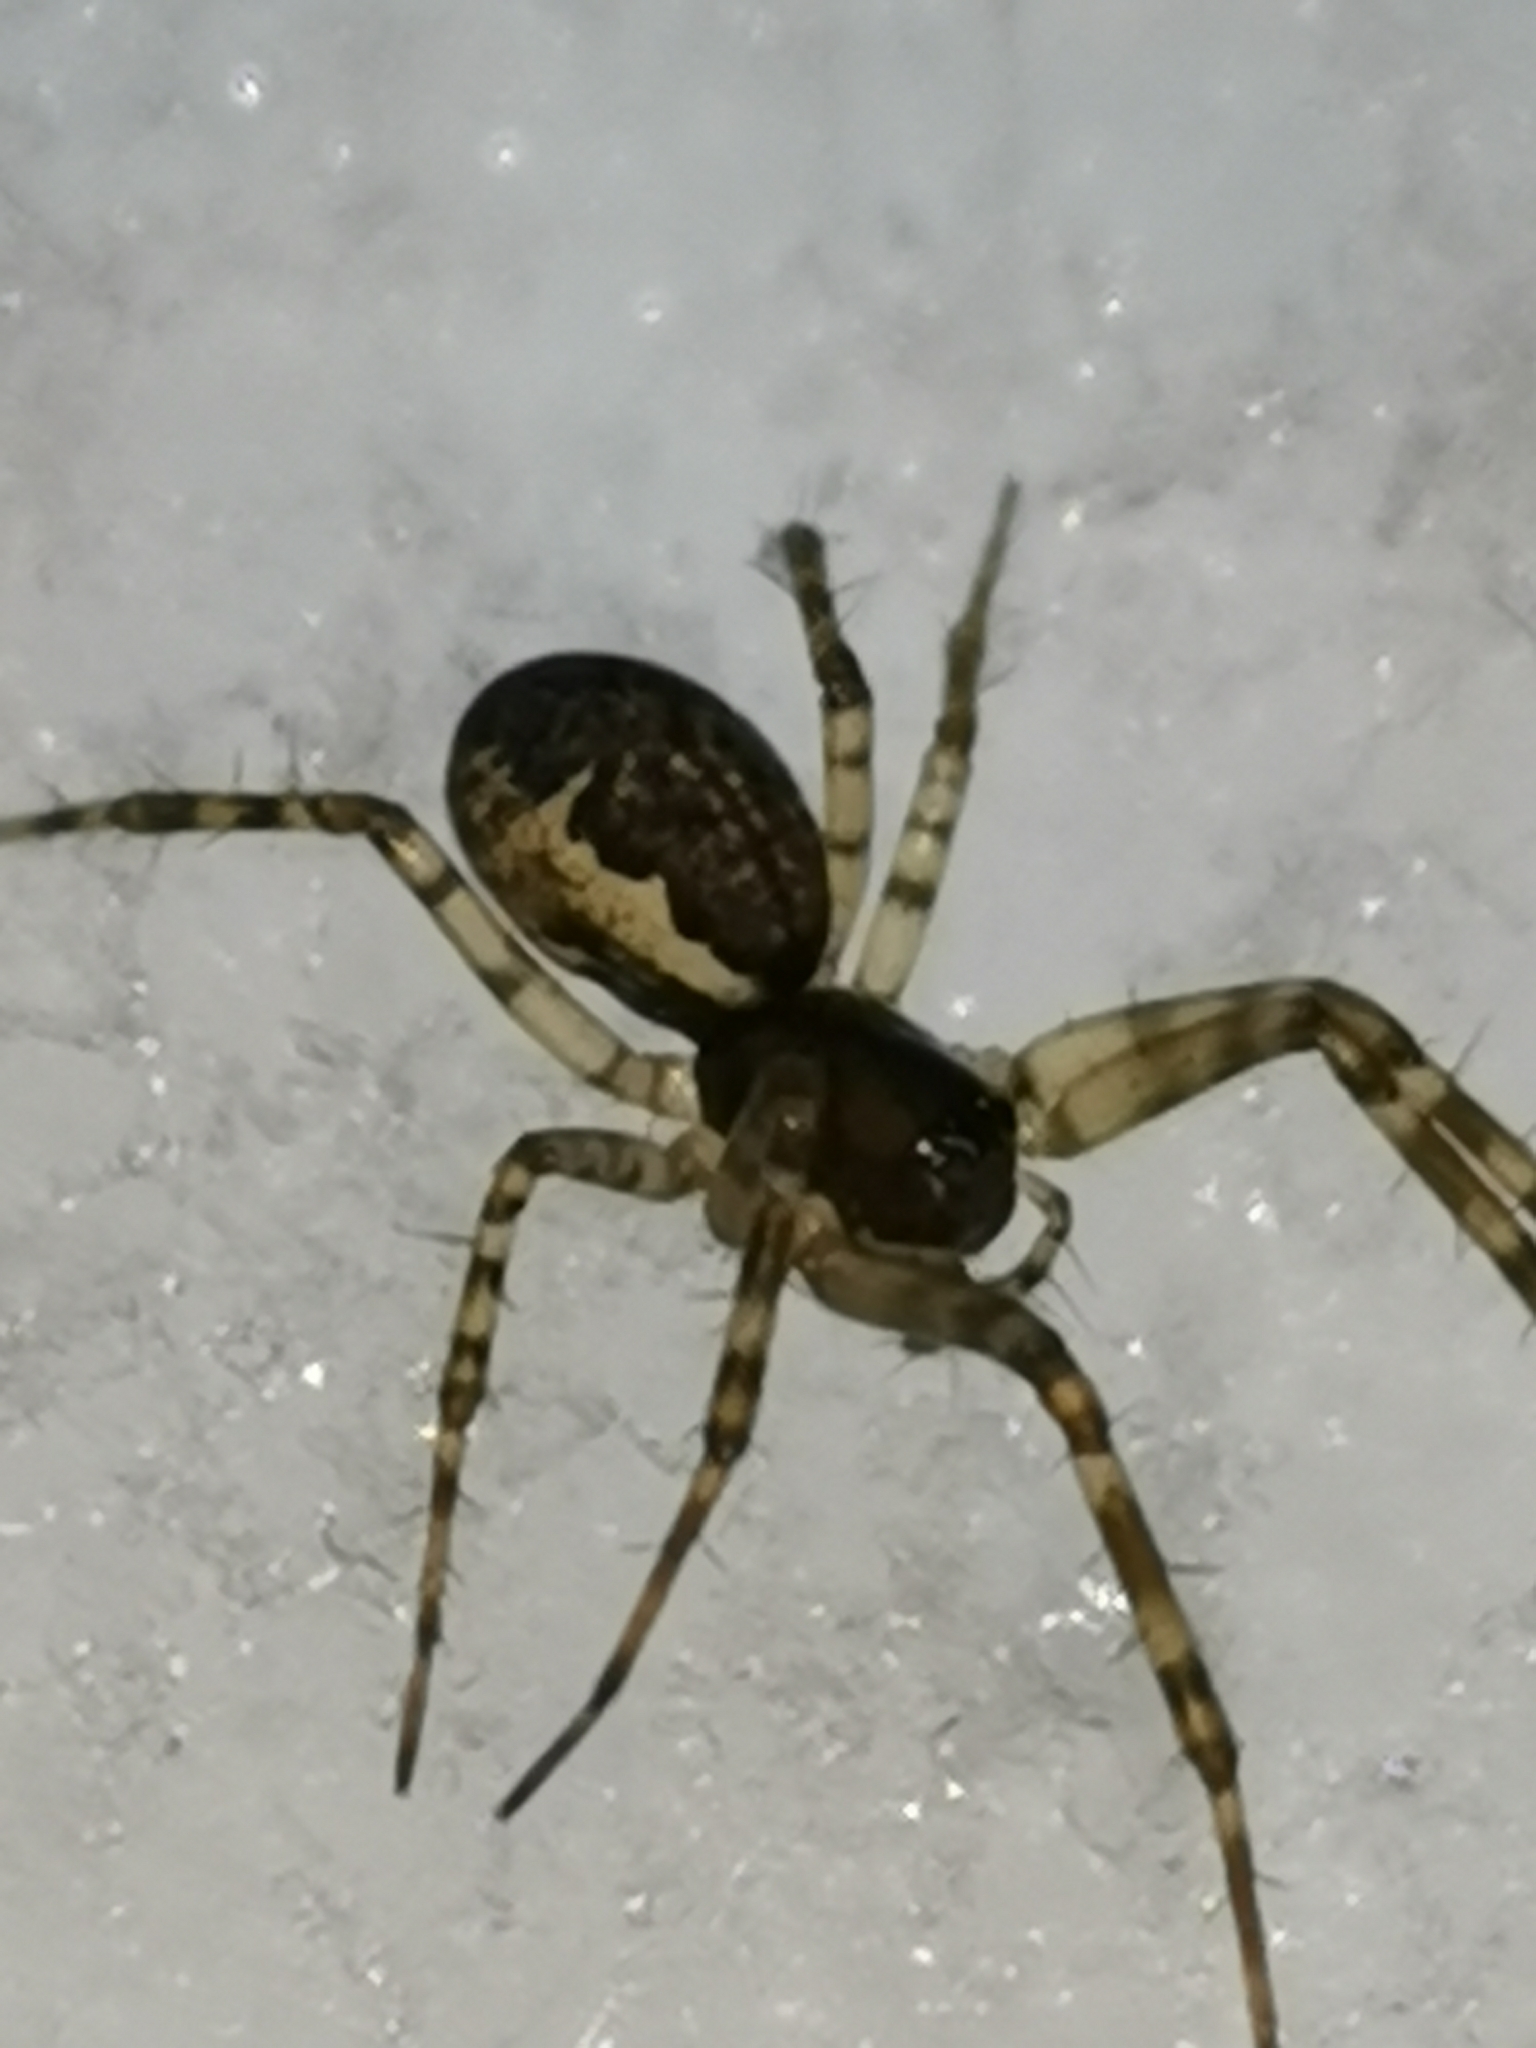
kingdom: Animalia
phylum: Arthropoda
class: Arachnida
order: Araneae
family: Linyphiidae
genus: Neriene
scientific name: Neriene montana
